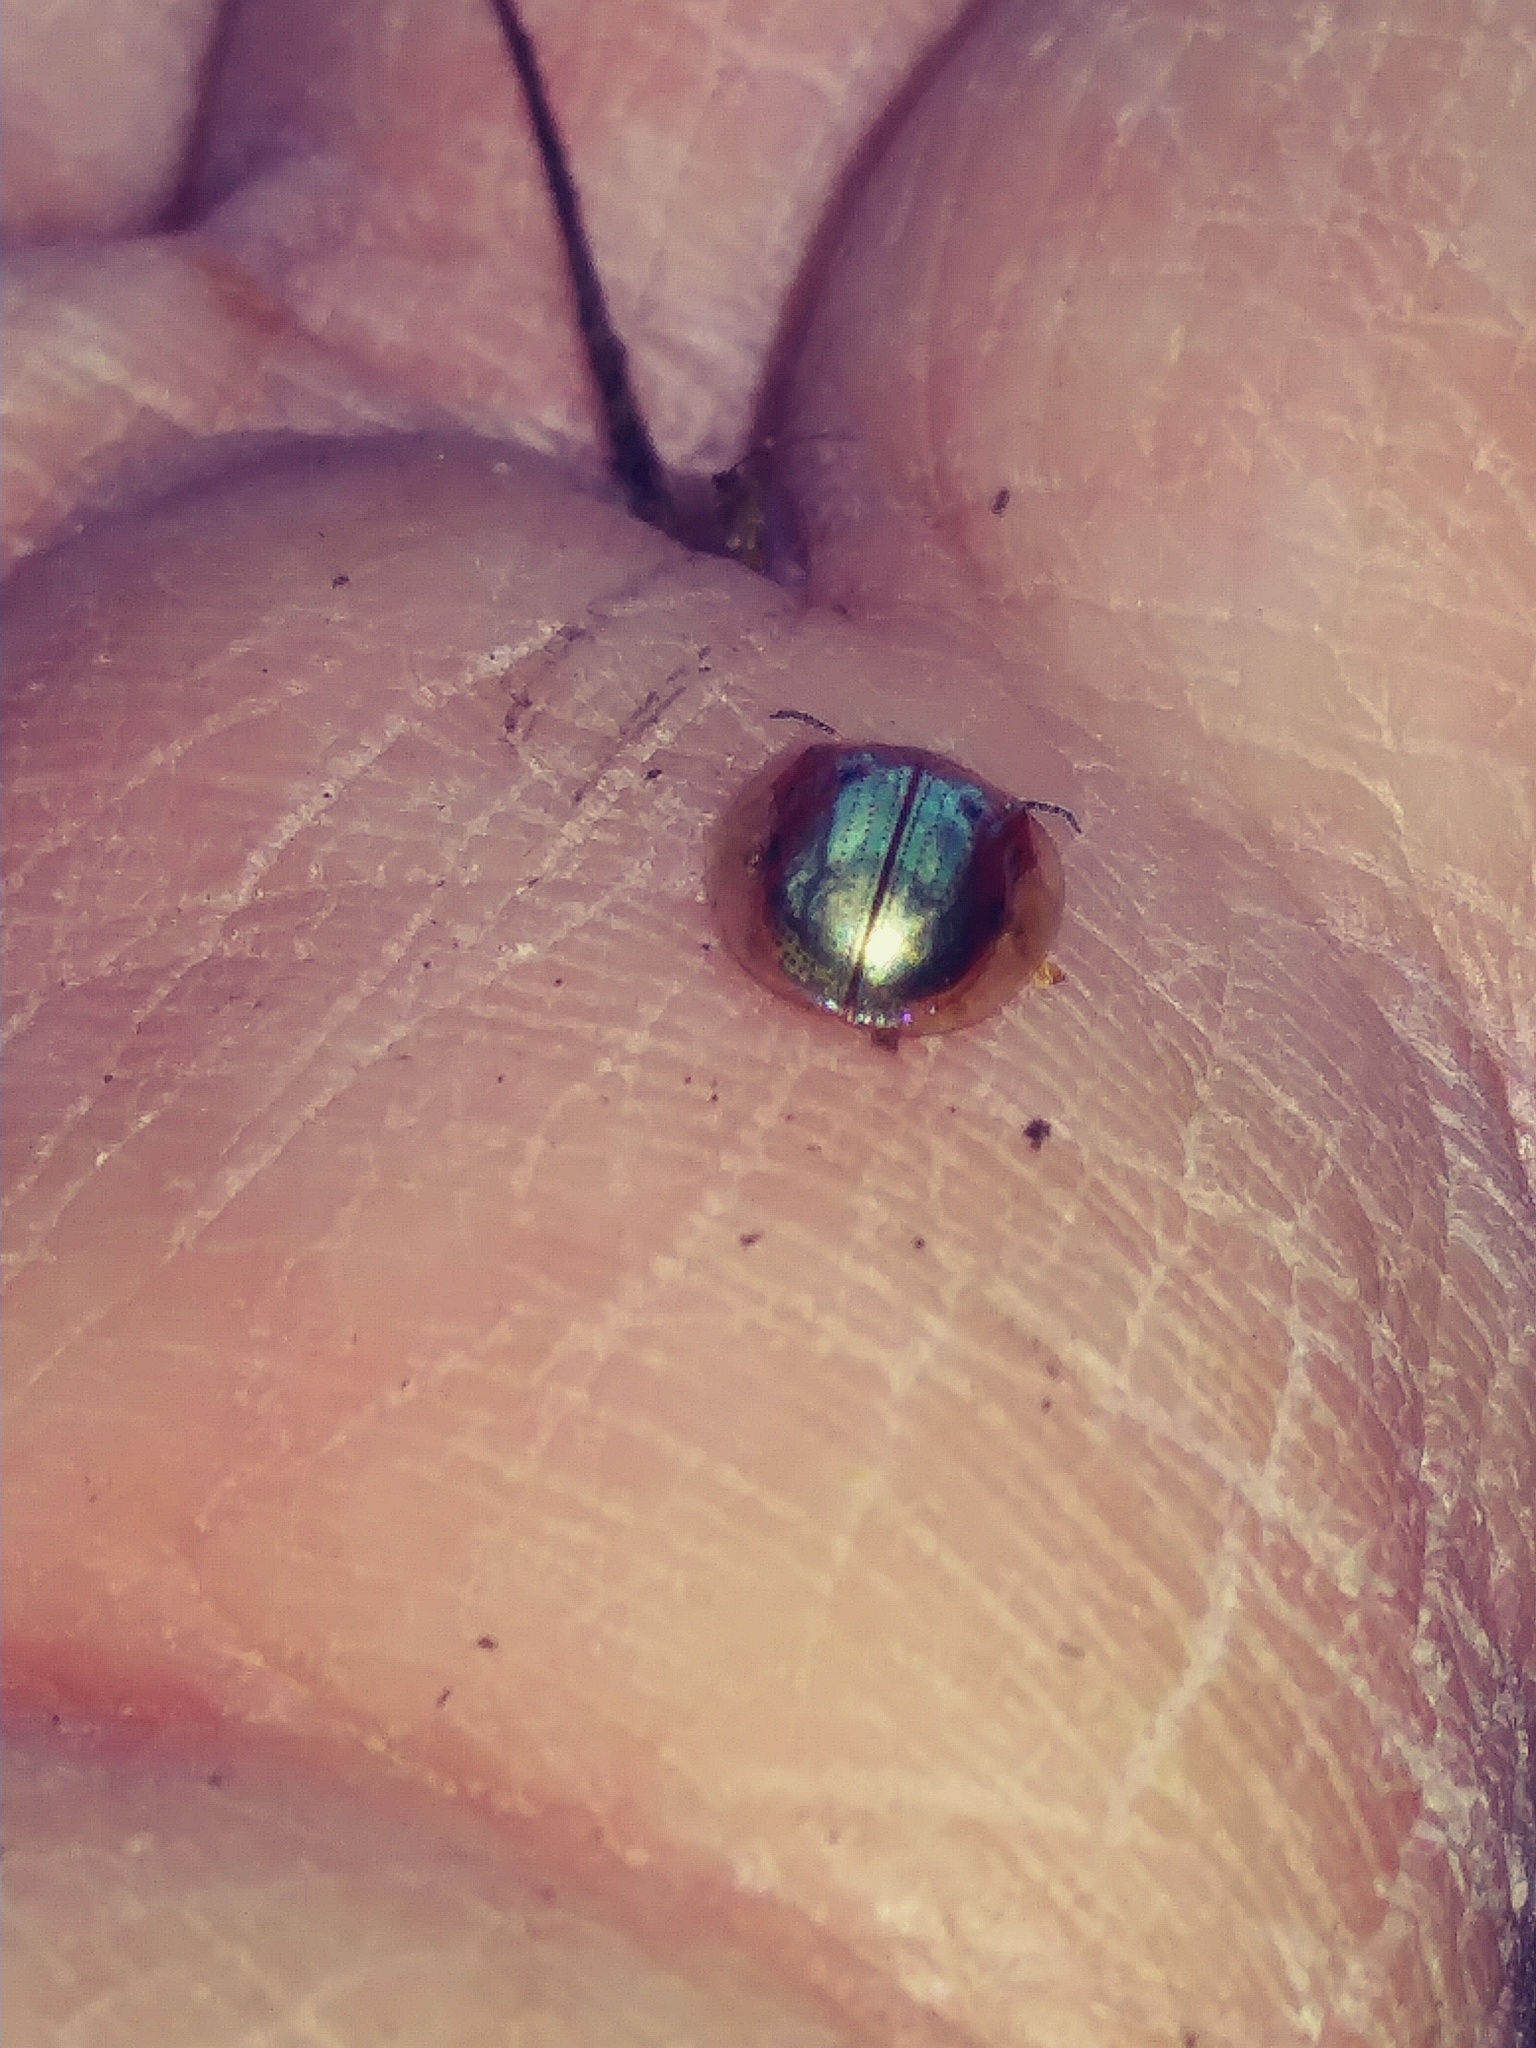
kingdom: Animalia
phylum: Arthropoda
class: Insecta
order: Coleoptera
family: Chrysomelidae
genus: Charidotella
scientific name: Charidotella sexpunctata
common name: Golden tortoise beetle
